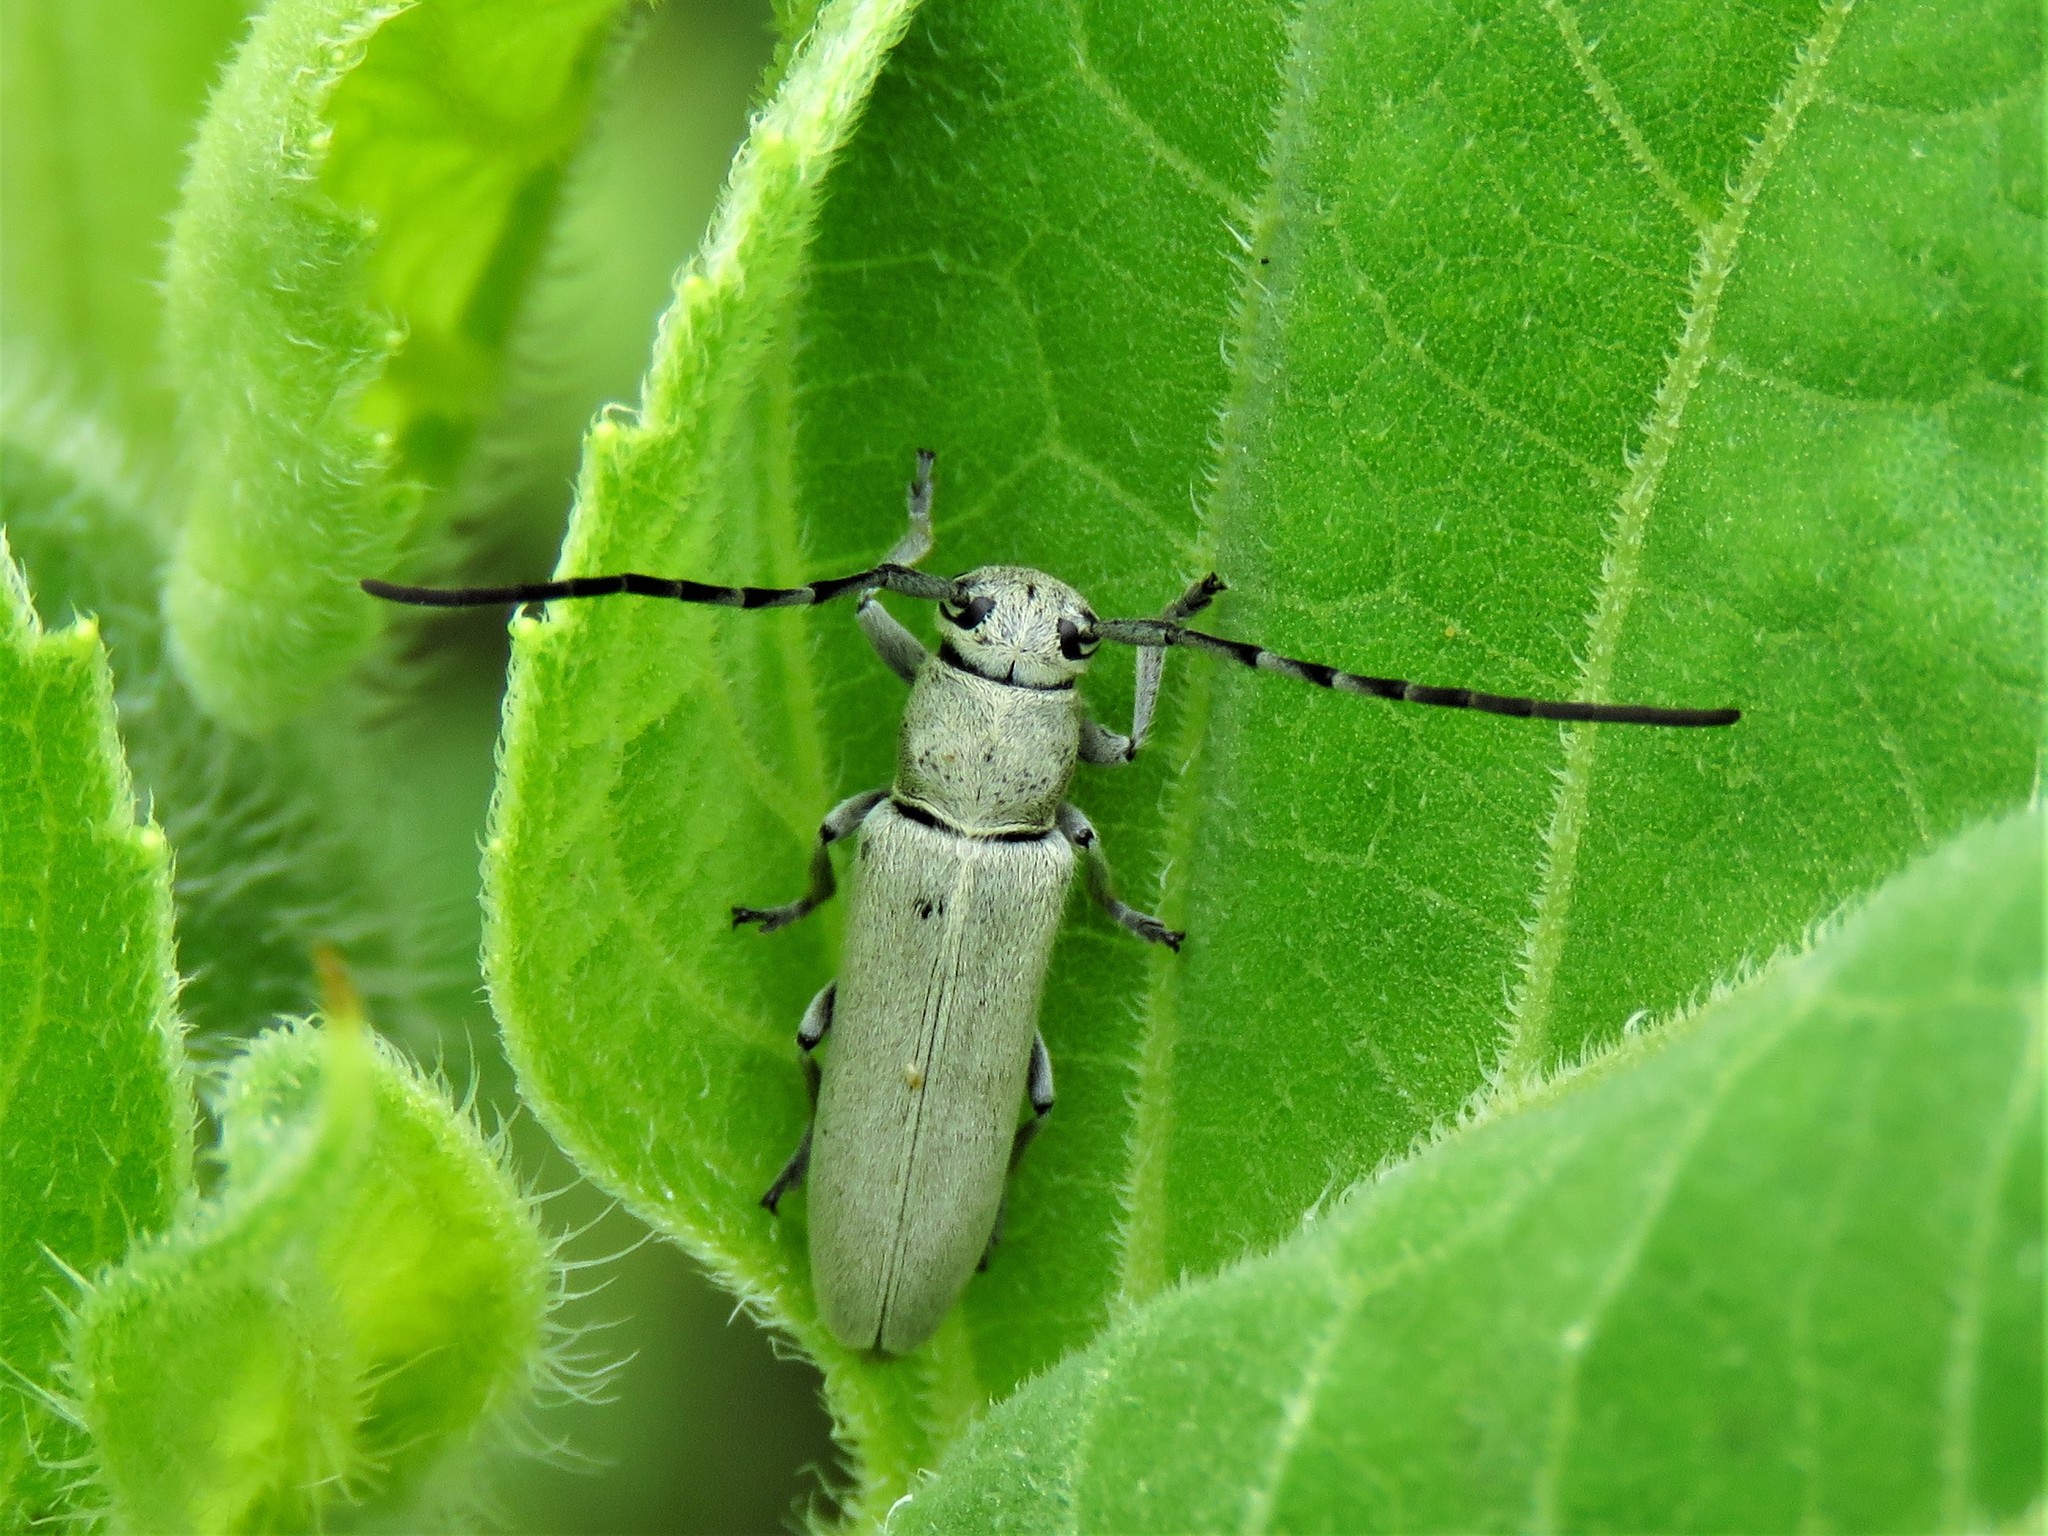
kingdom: Animalia
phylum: Arthropoda
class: Insecta
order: Coleoptera
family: Cerambycidae
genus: Mecas
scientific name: Mecas cineracea
